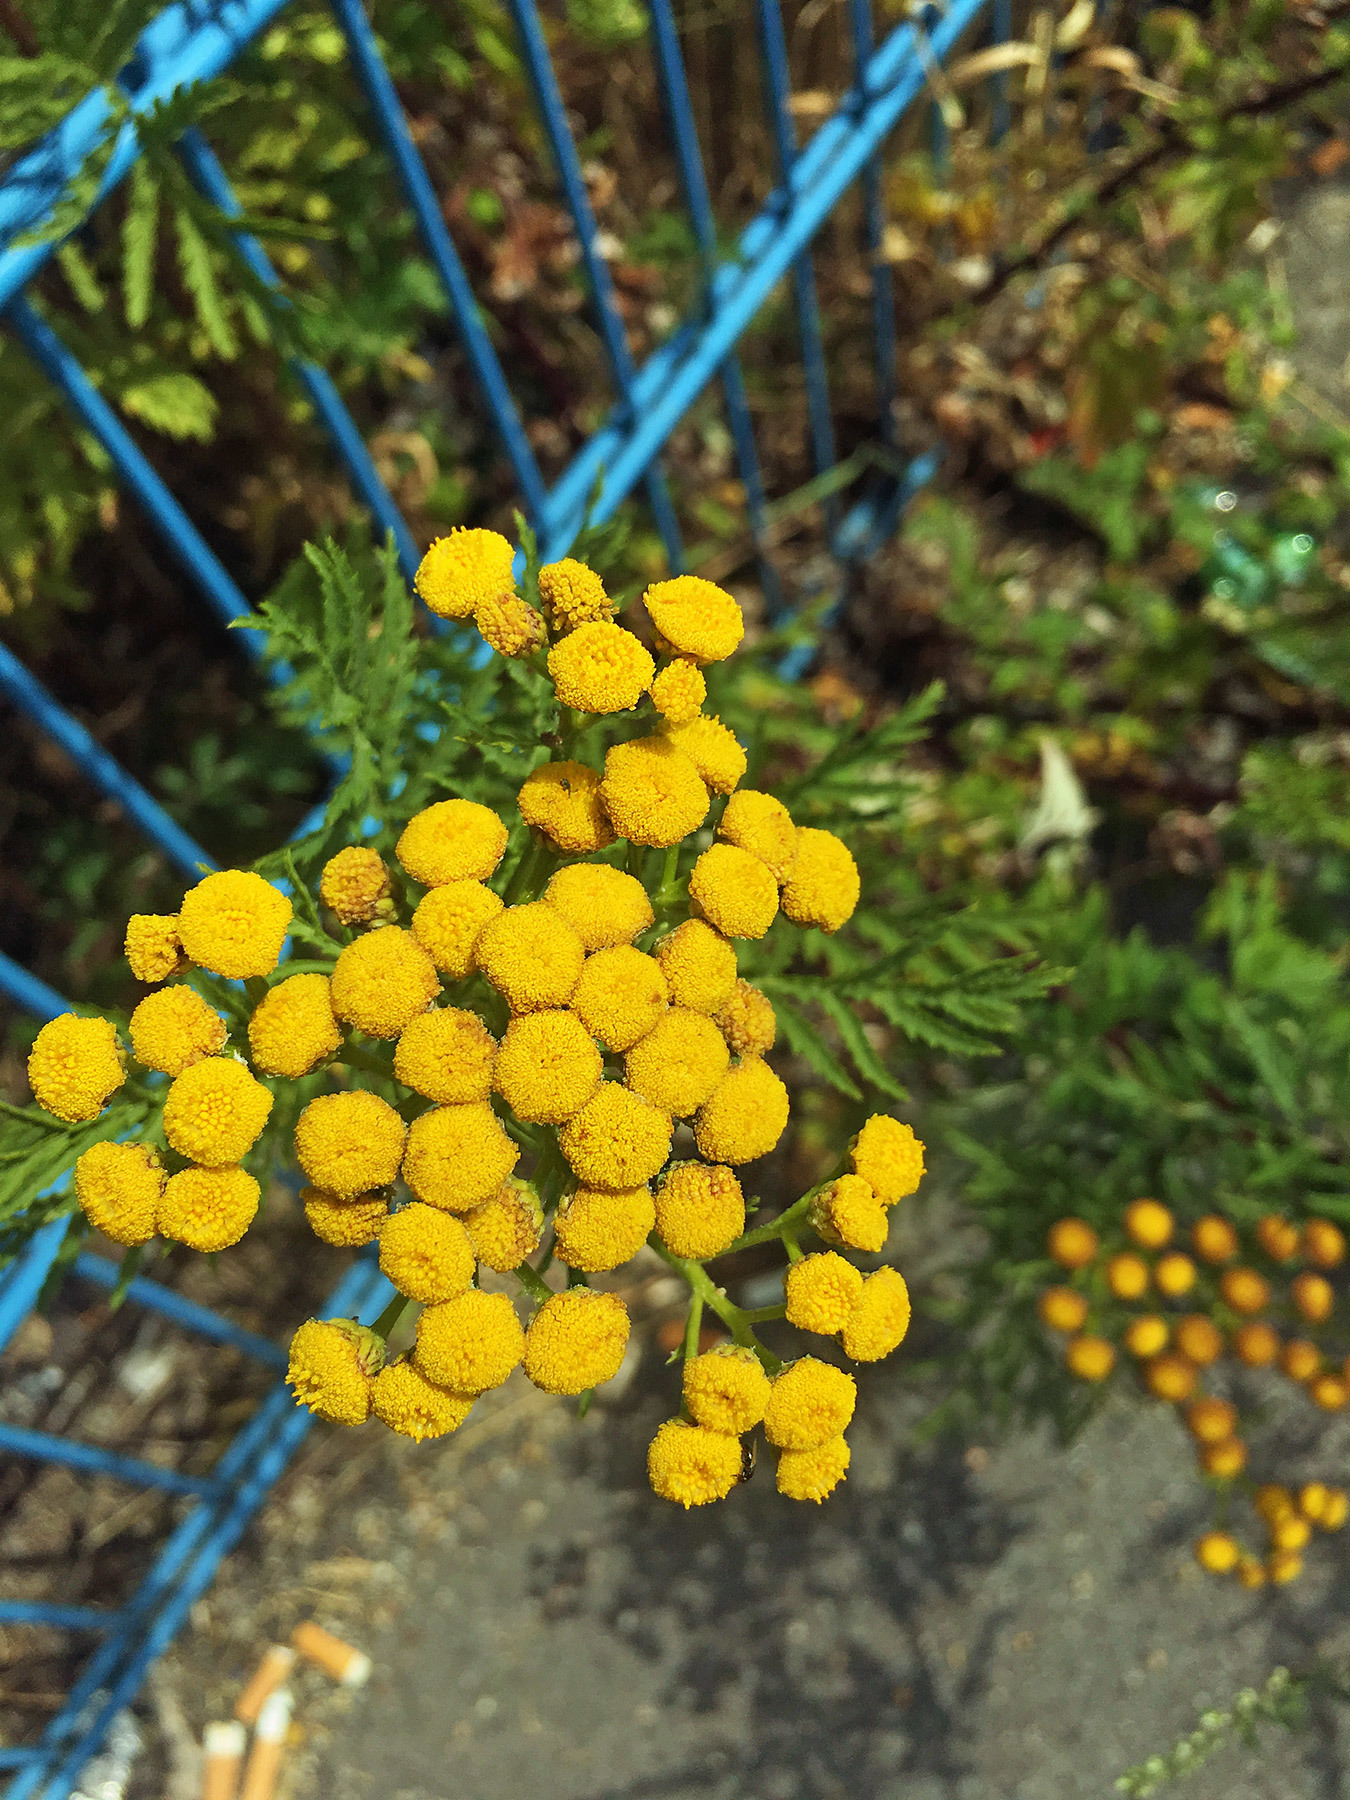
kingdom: Plantae
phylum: Tracheophyta
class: Magnoliopsida
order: Asterales
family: Asteraceae
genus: Tanacetum
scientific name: Tanacetum vulgare
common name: Common tansy
